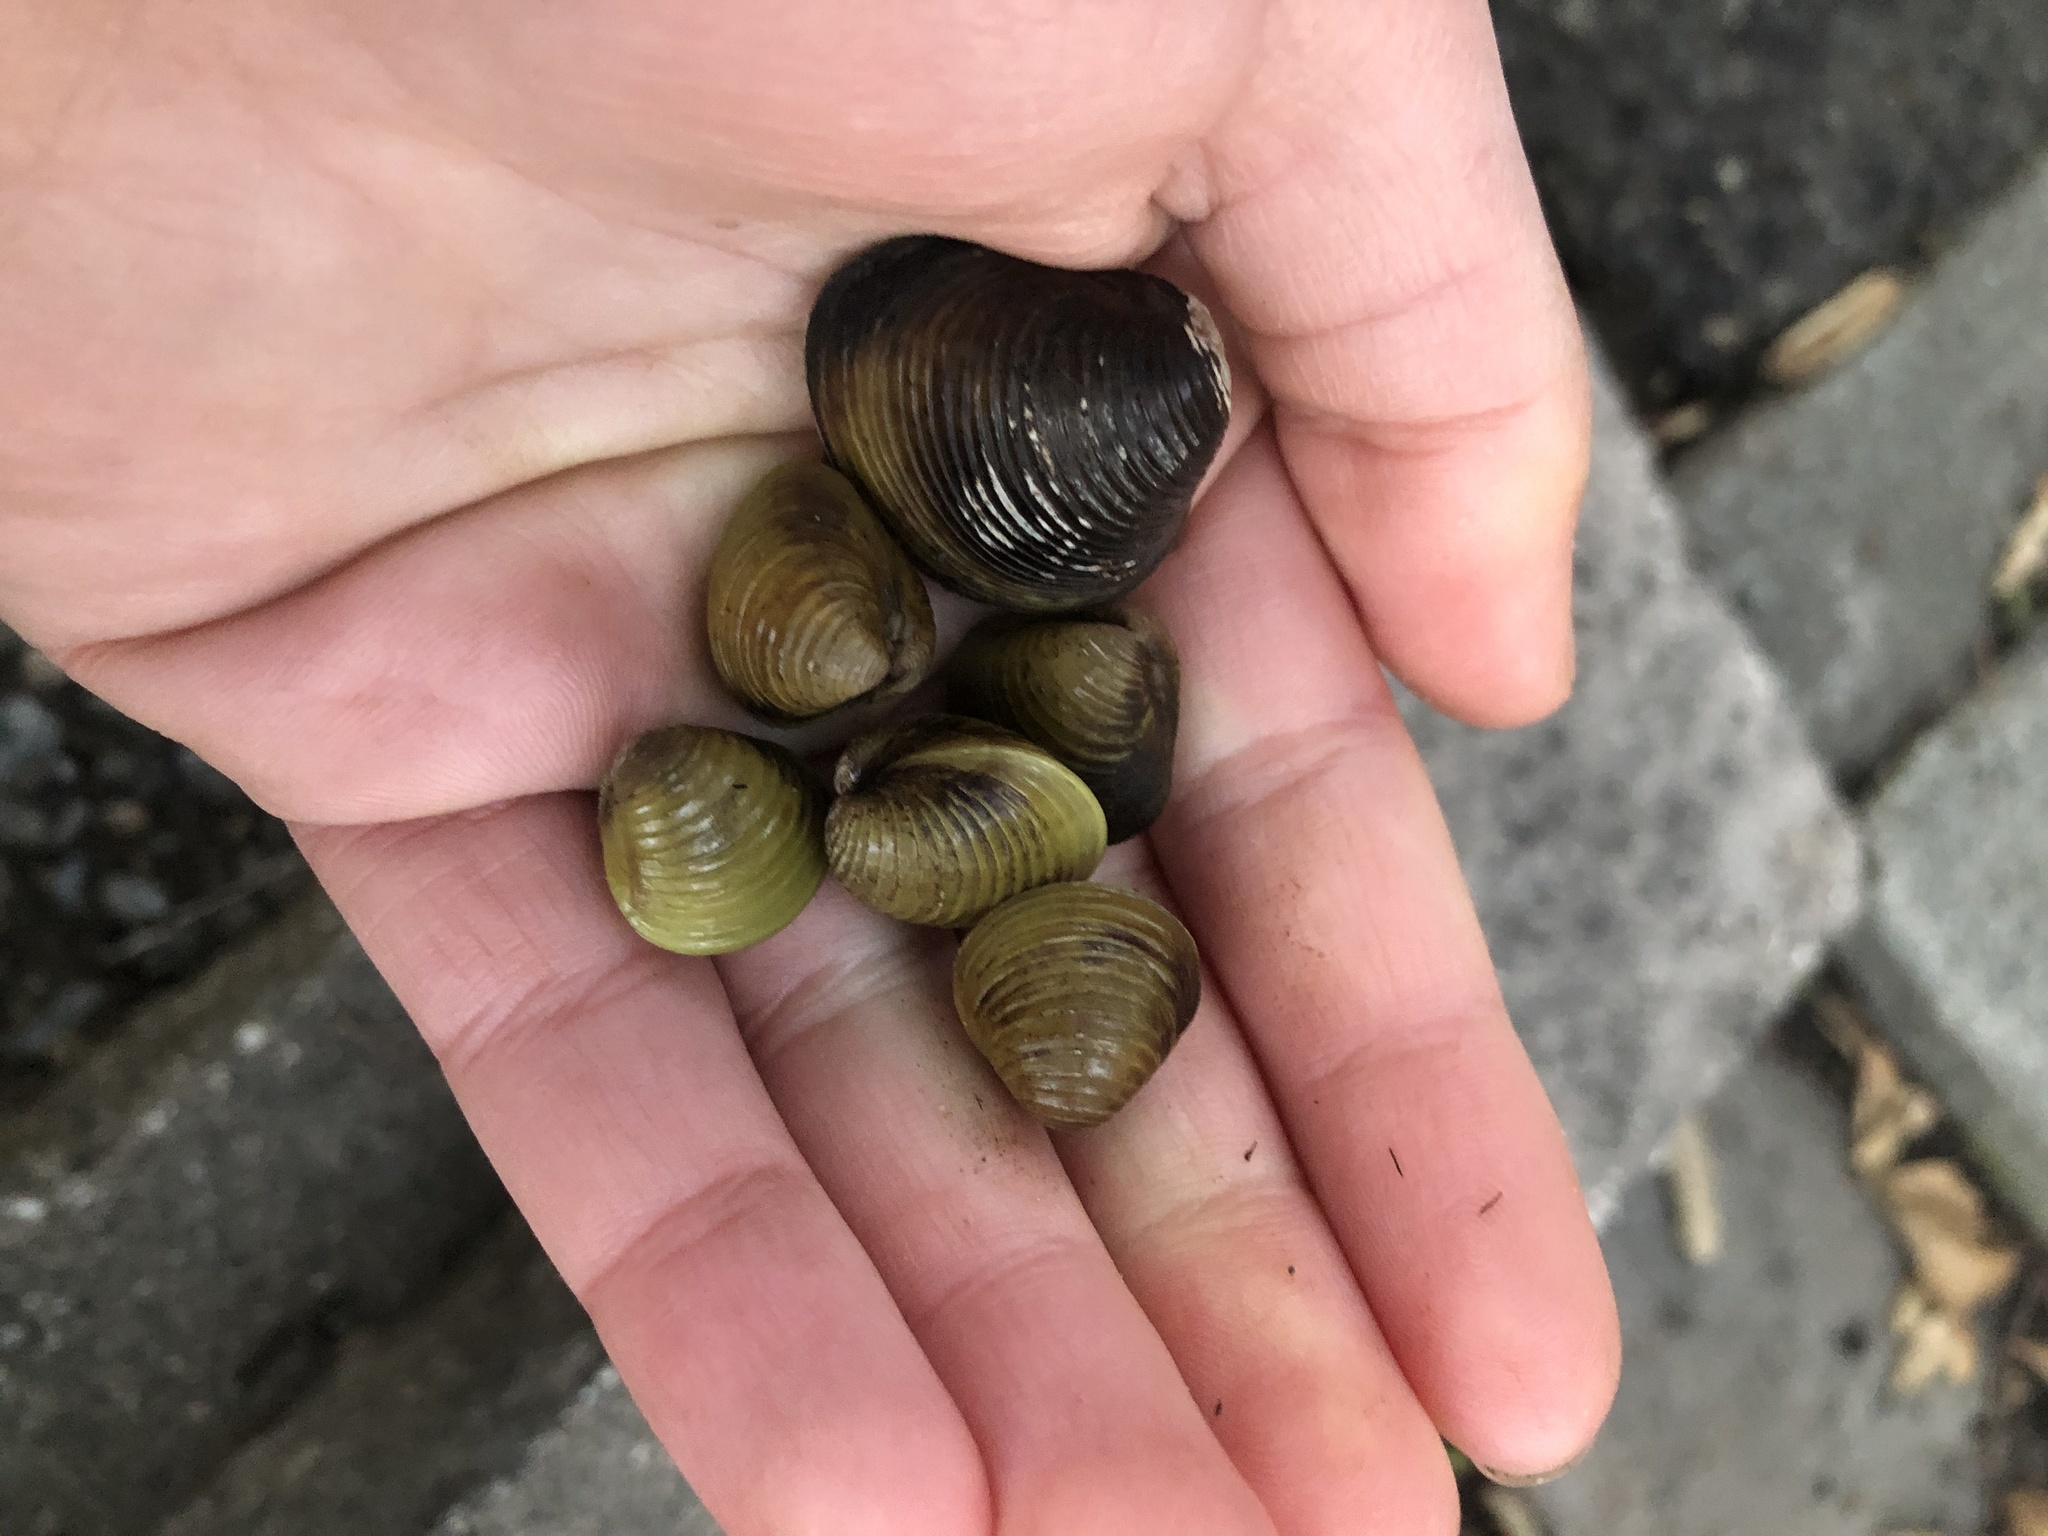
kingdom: Animalia
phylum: Mollusca
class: Bivalvia
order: Venerida
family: Cyrenidae
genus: Corbicula
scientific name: Corbicula fluminea
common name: Asian clam
